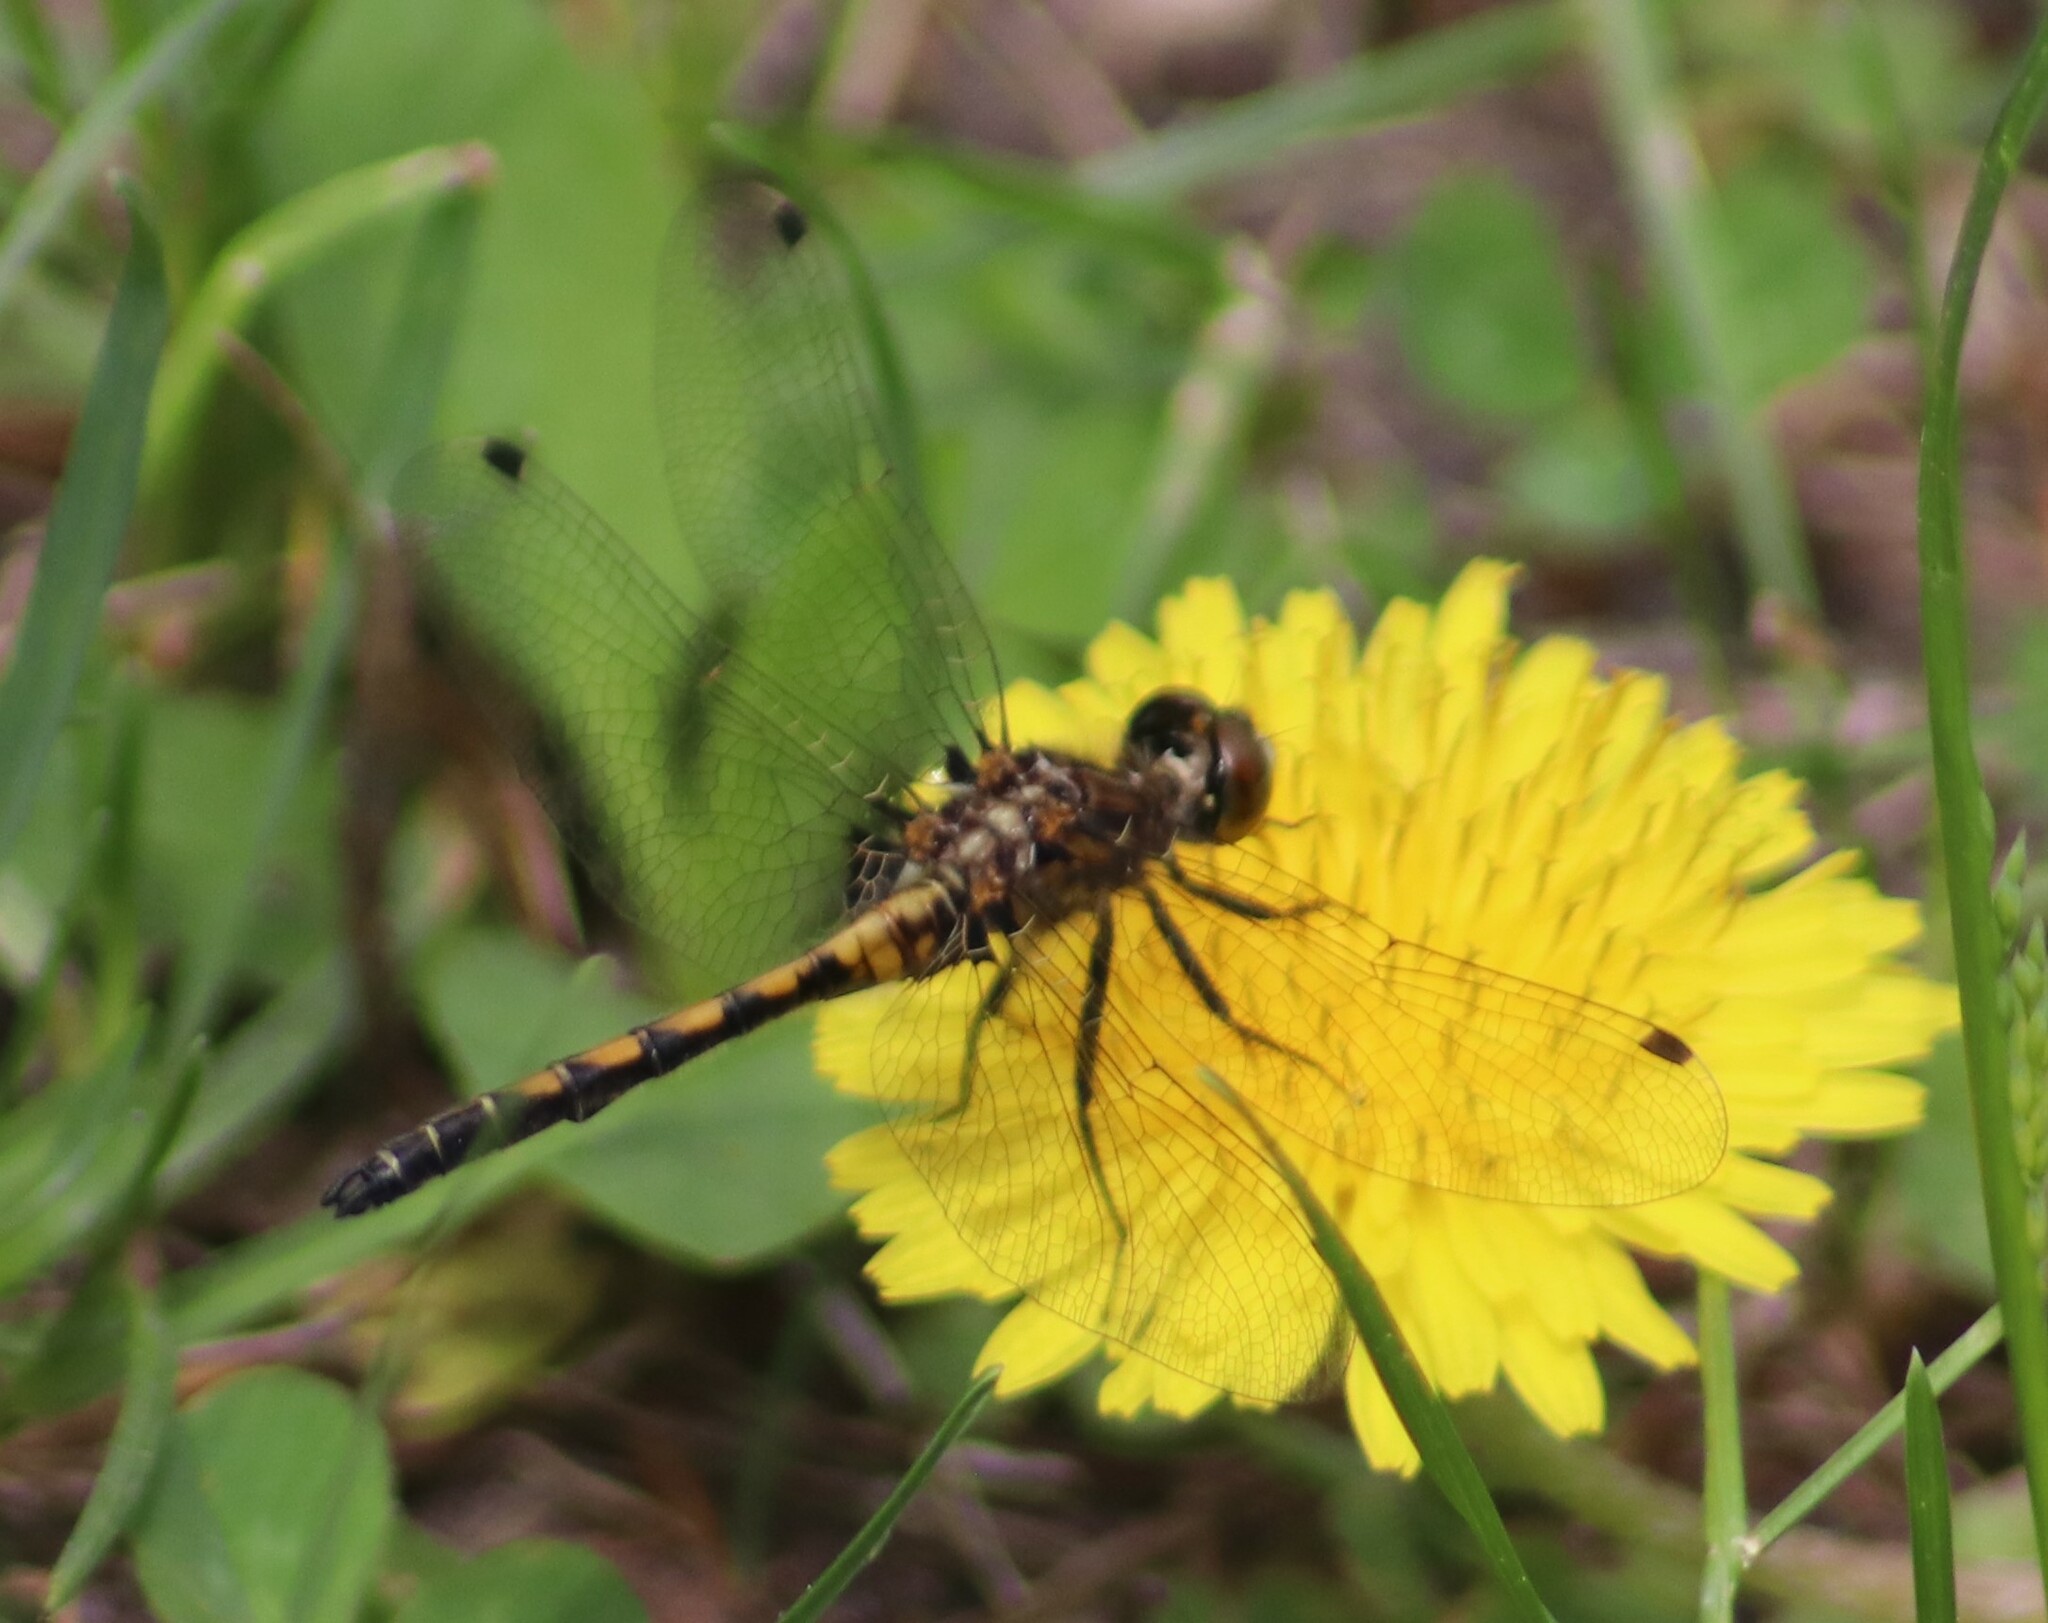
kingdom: Animalia
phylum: Arthropoda
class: Insecta
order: Odonata
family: Libellulidae
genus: Leucorrhinia
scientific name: Leucorrhinia hudsonica
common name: Hudsonian whiteface
